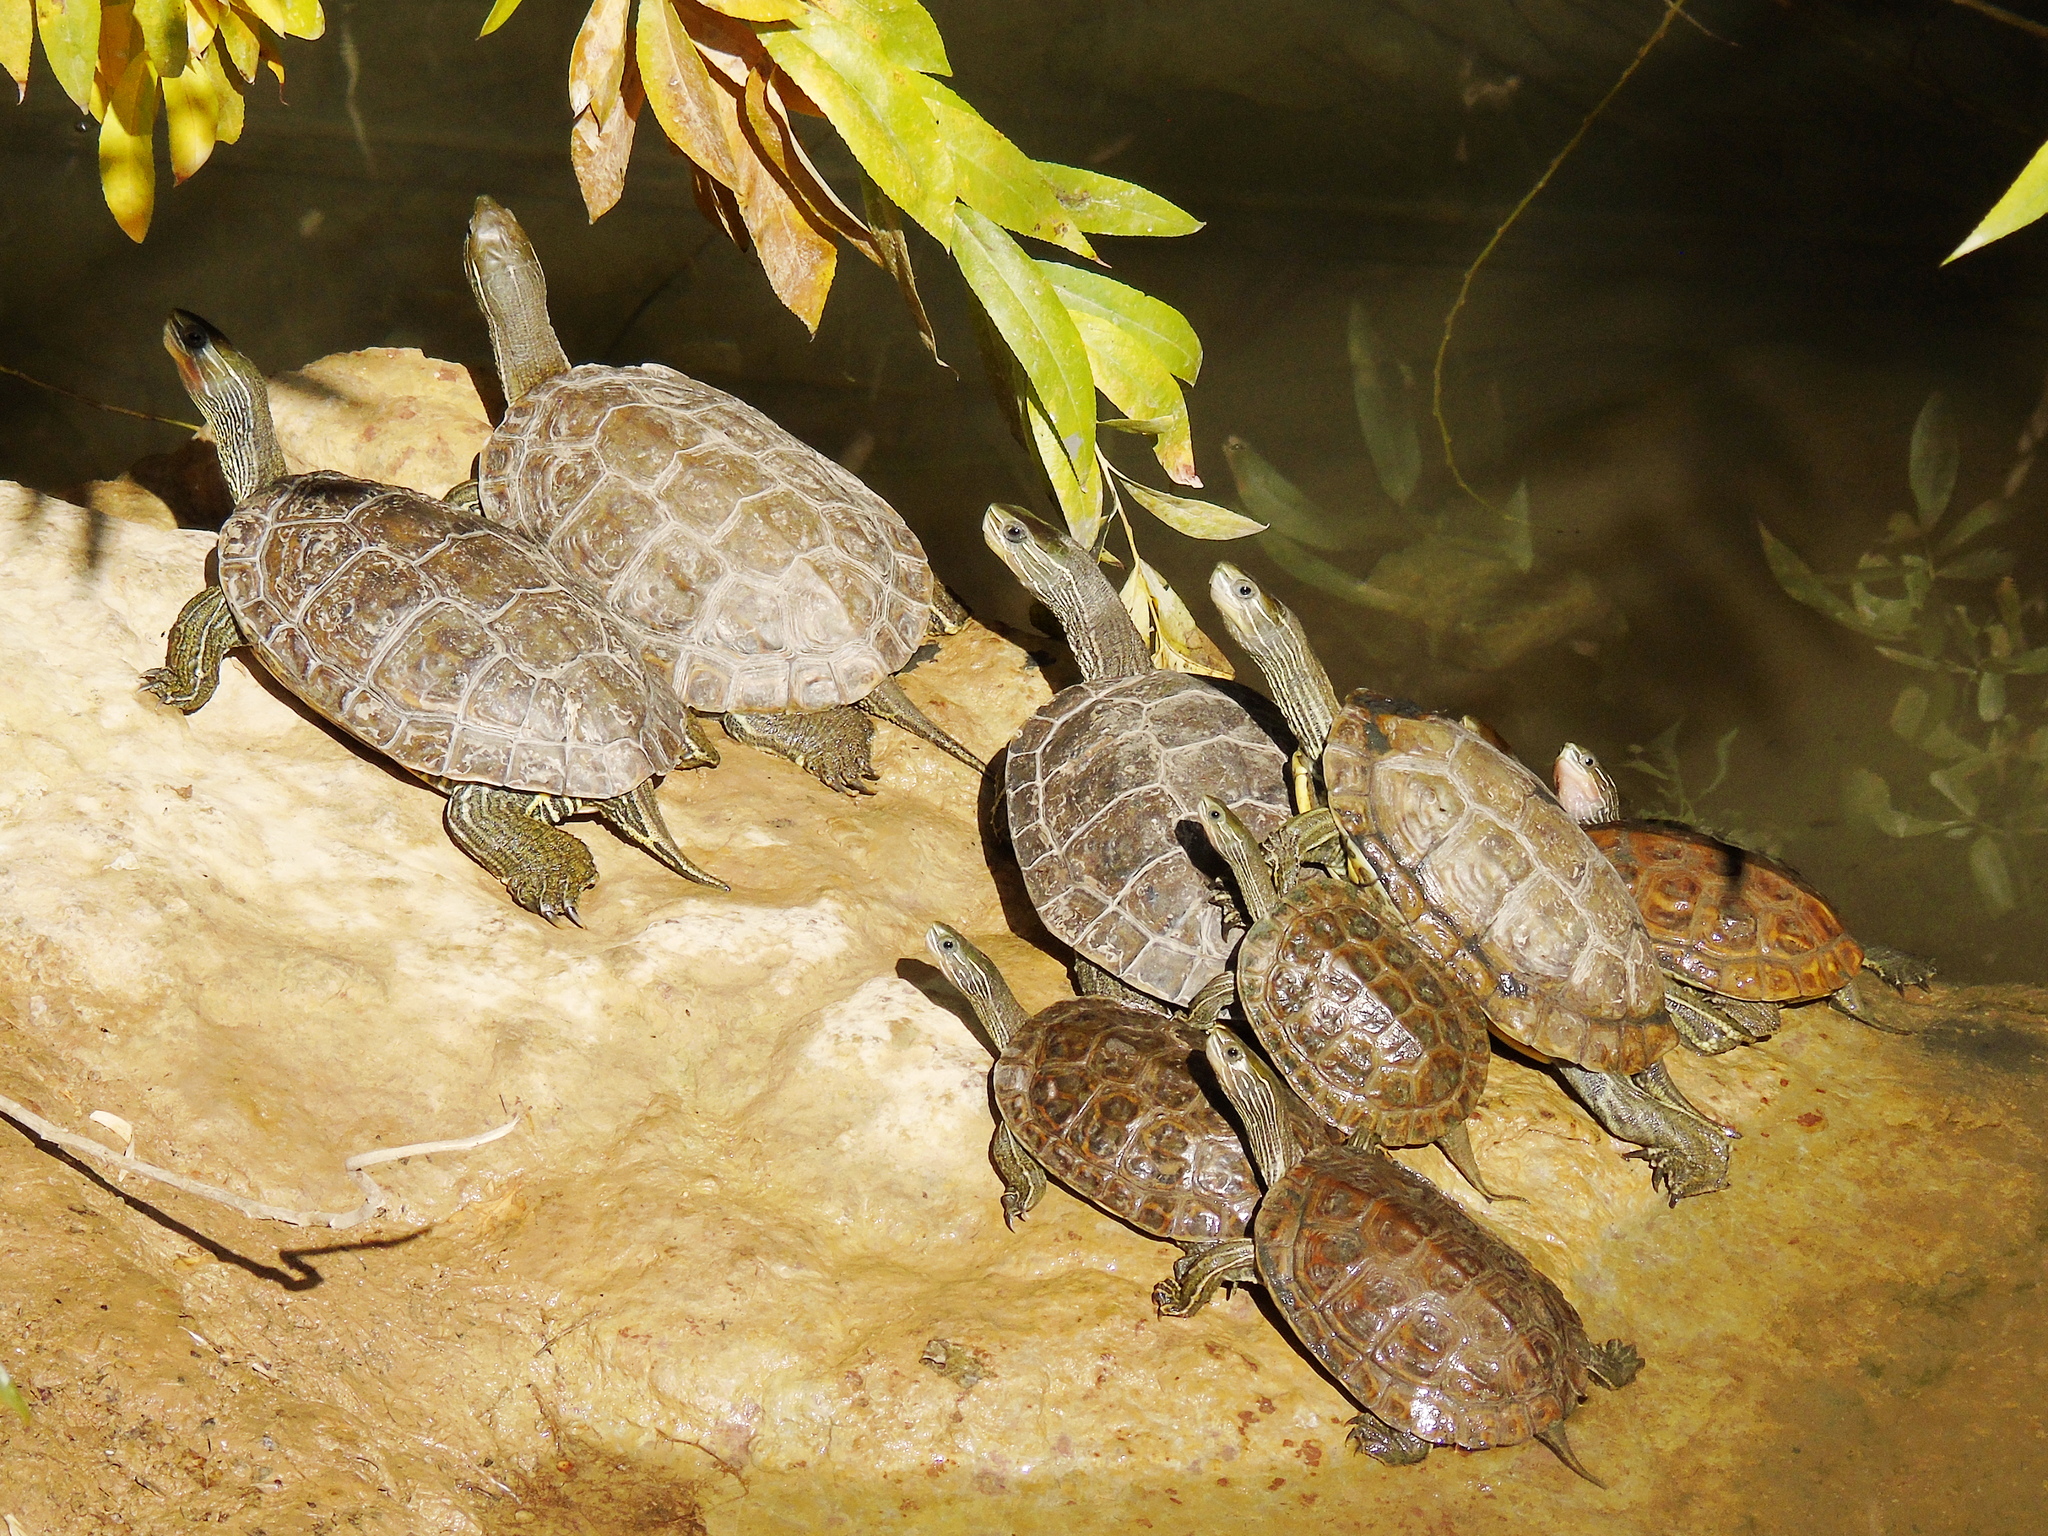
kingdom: Animalia
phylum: Chordata
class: Testudines
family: Geoemydidae
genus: Mauremys
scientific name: Mauremys caspica
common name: Caspian turtle
